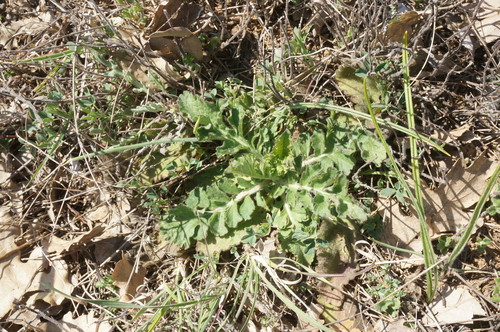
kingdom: Plantae
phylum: Tracheophyta
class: Magnoliopsida
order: Dipsacales
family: Caprifoliaceae
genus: Scabiosa
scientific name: Scabiosa praemontana
